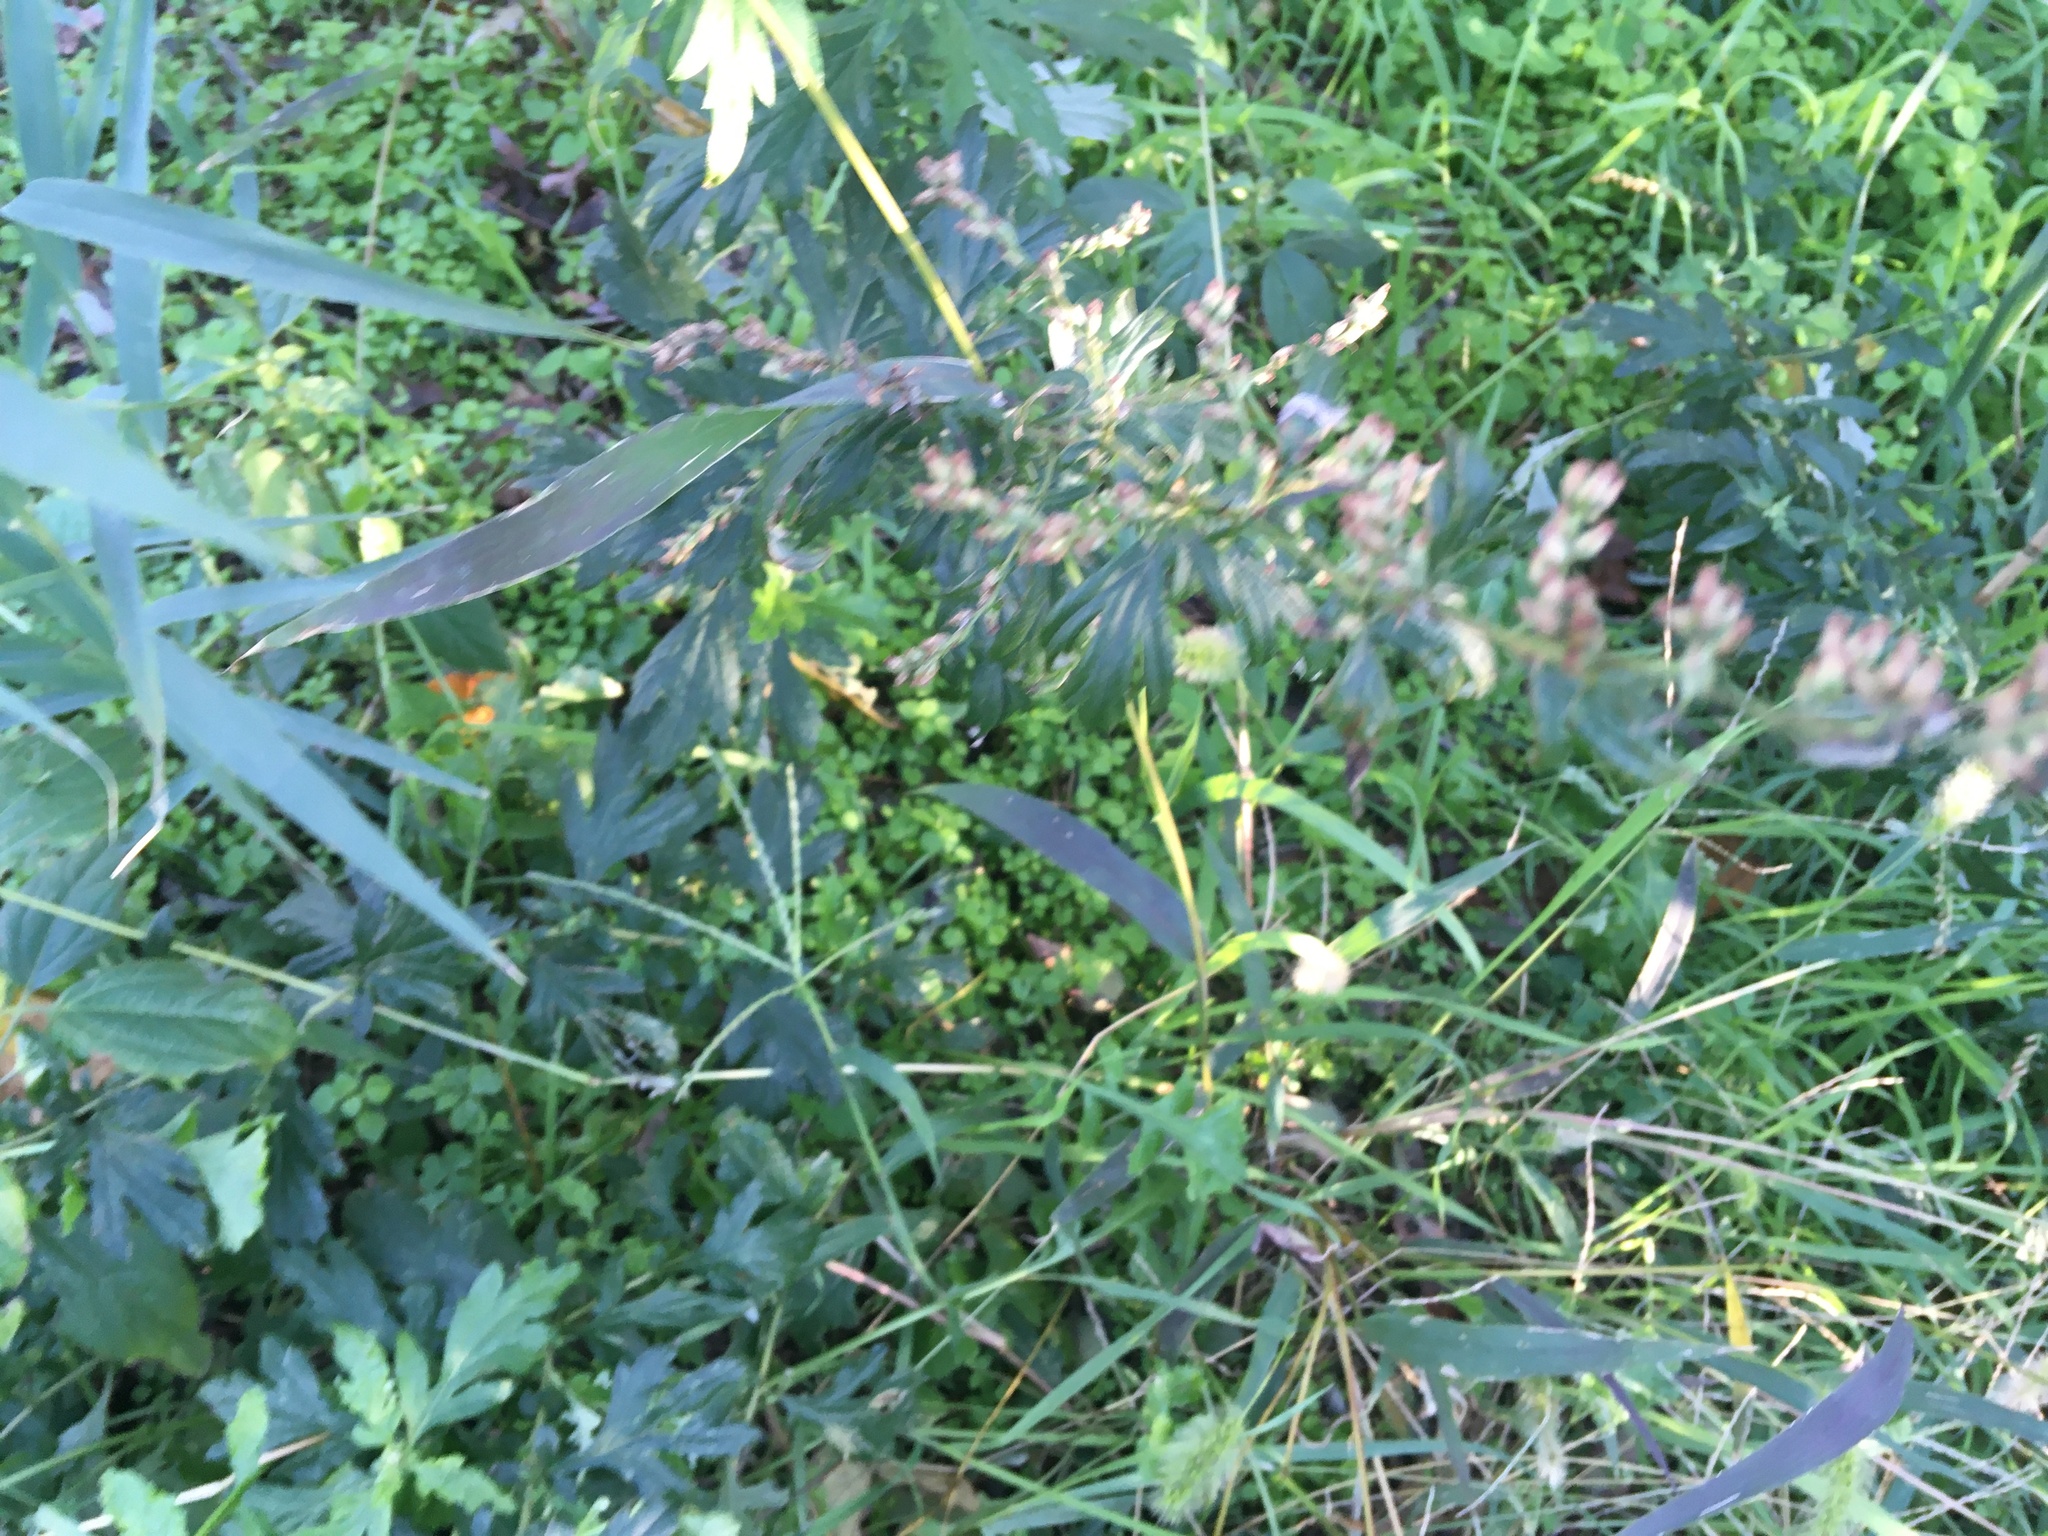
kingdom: Plantae
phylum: Tracheophyta
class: Magnoliopsida
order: Asterales
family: Asteraceae
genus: Artemisia
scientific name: Artemisia vulgaris
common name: Mugwort
